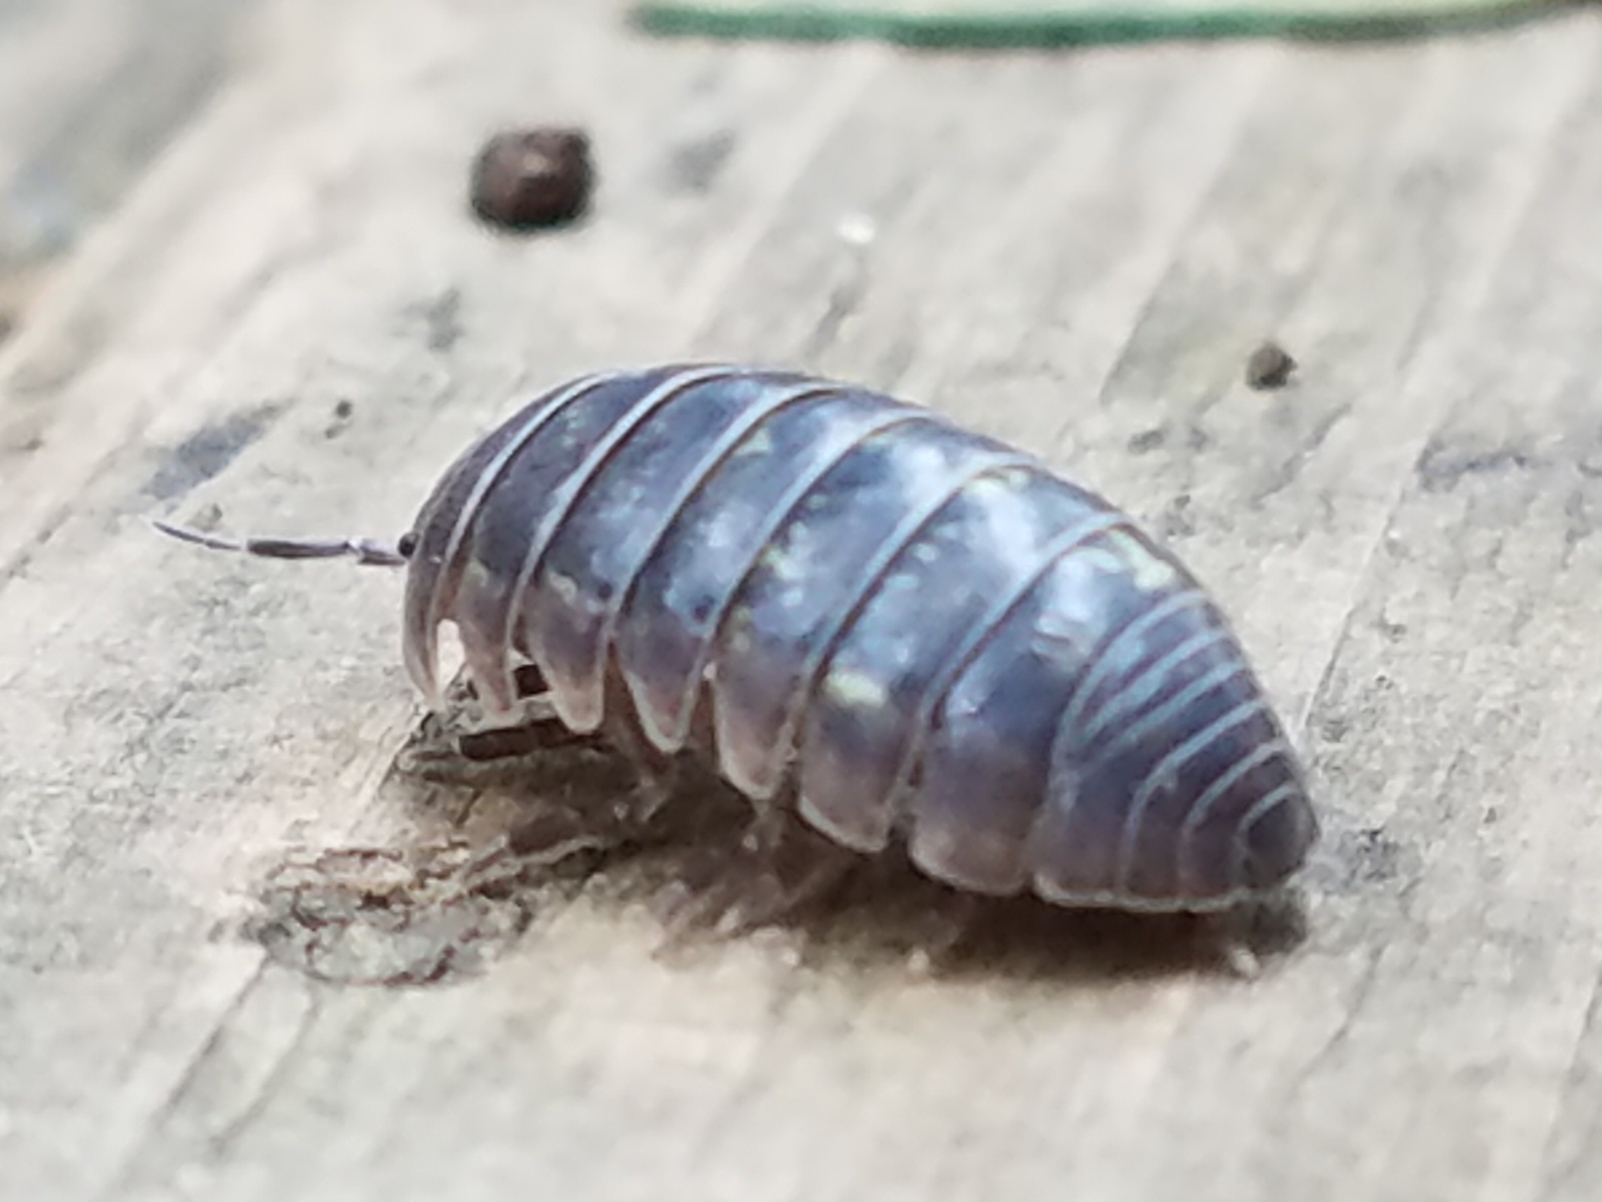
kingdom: Animalia
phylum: Arthropoda
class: Malacostraca
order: Isopoda
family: Armadillidiidae
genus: Armadillidium
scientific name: Armadillidium vulgare
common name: Common pill woodlouse
